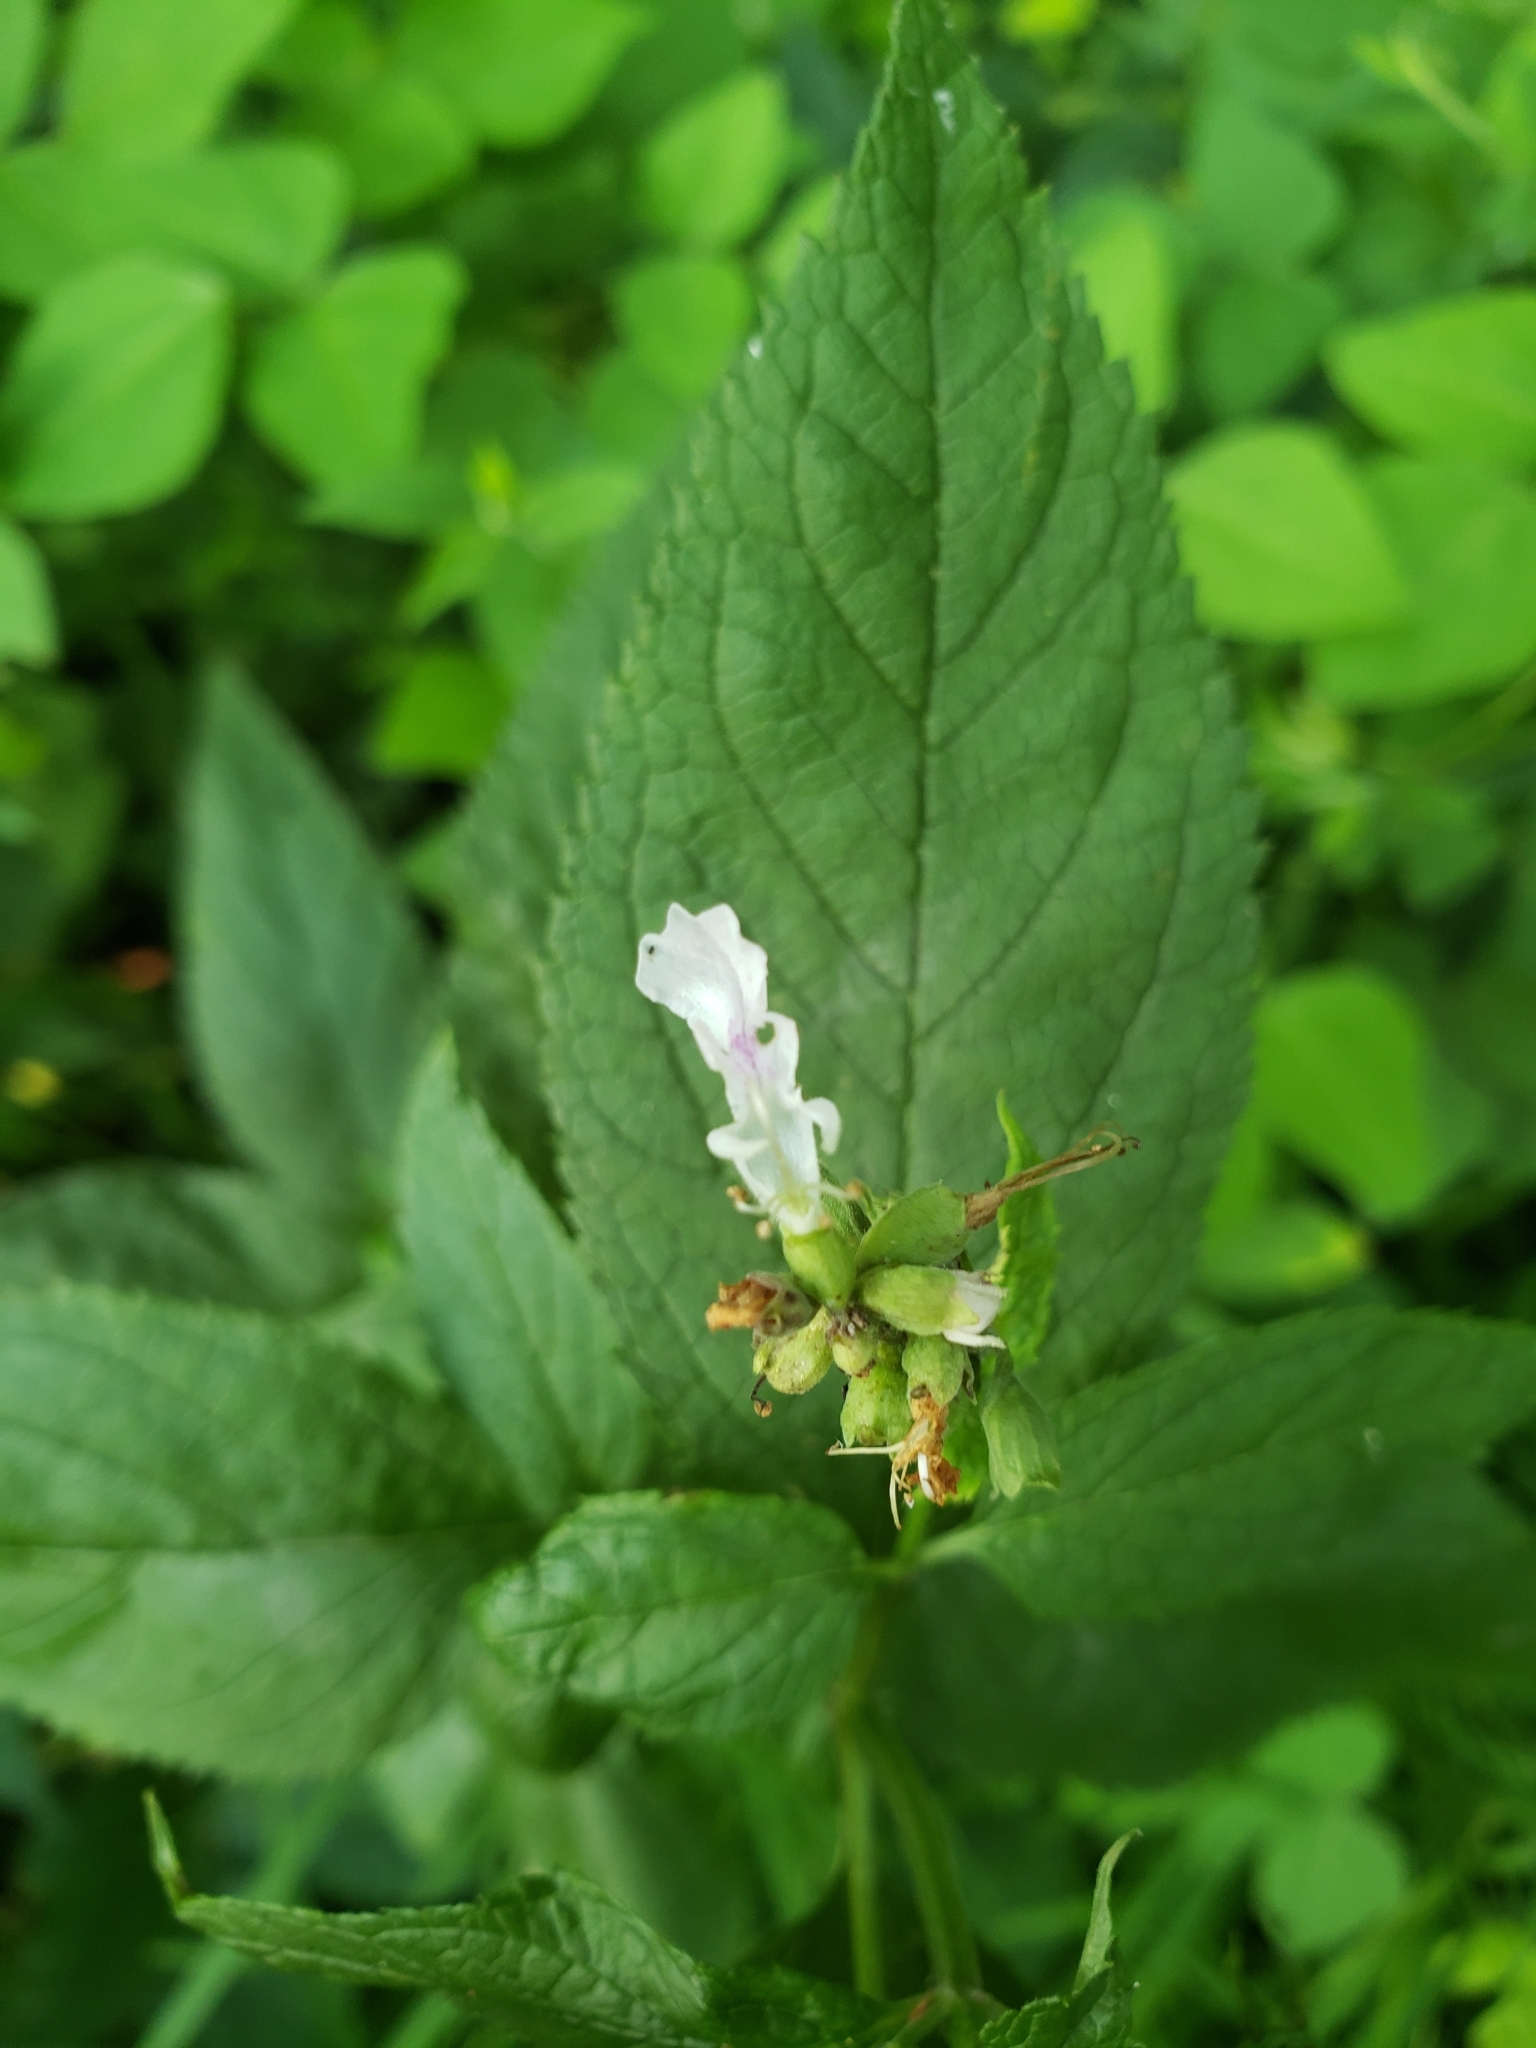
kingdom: Plantae
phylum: Tracheophyta
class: Magnoliopsida
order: Lamiales
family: Lamiaceae
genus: Teucrium
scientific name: Teucrium canadense
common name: American germander
